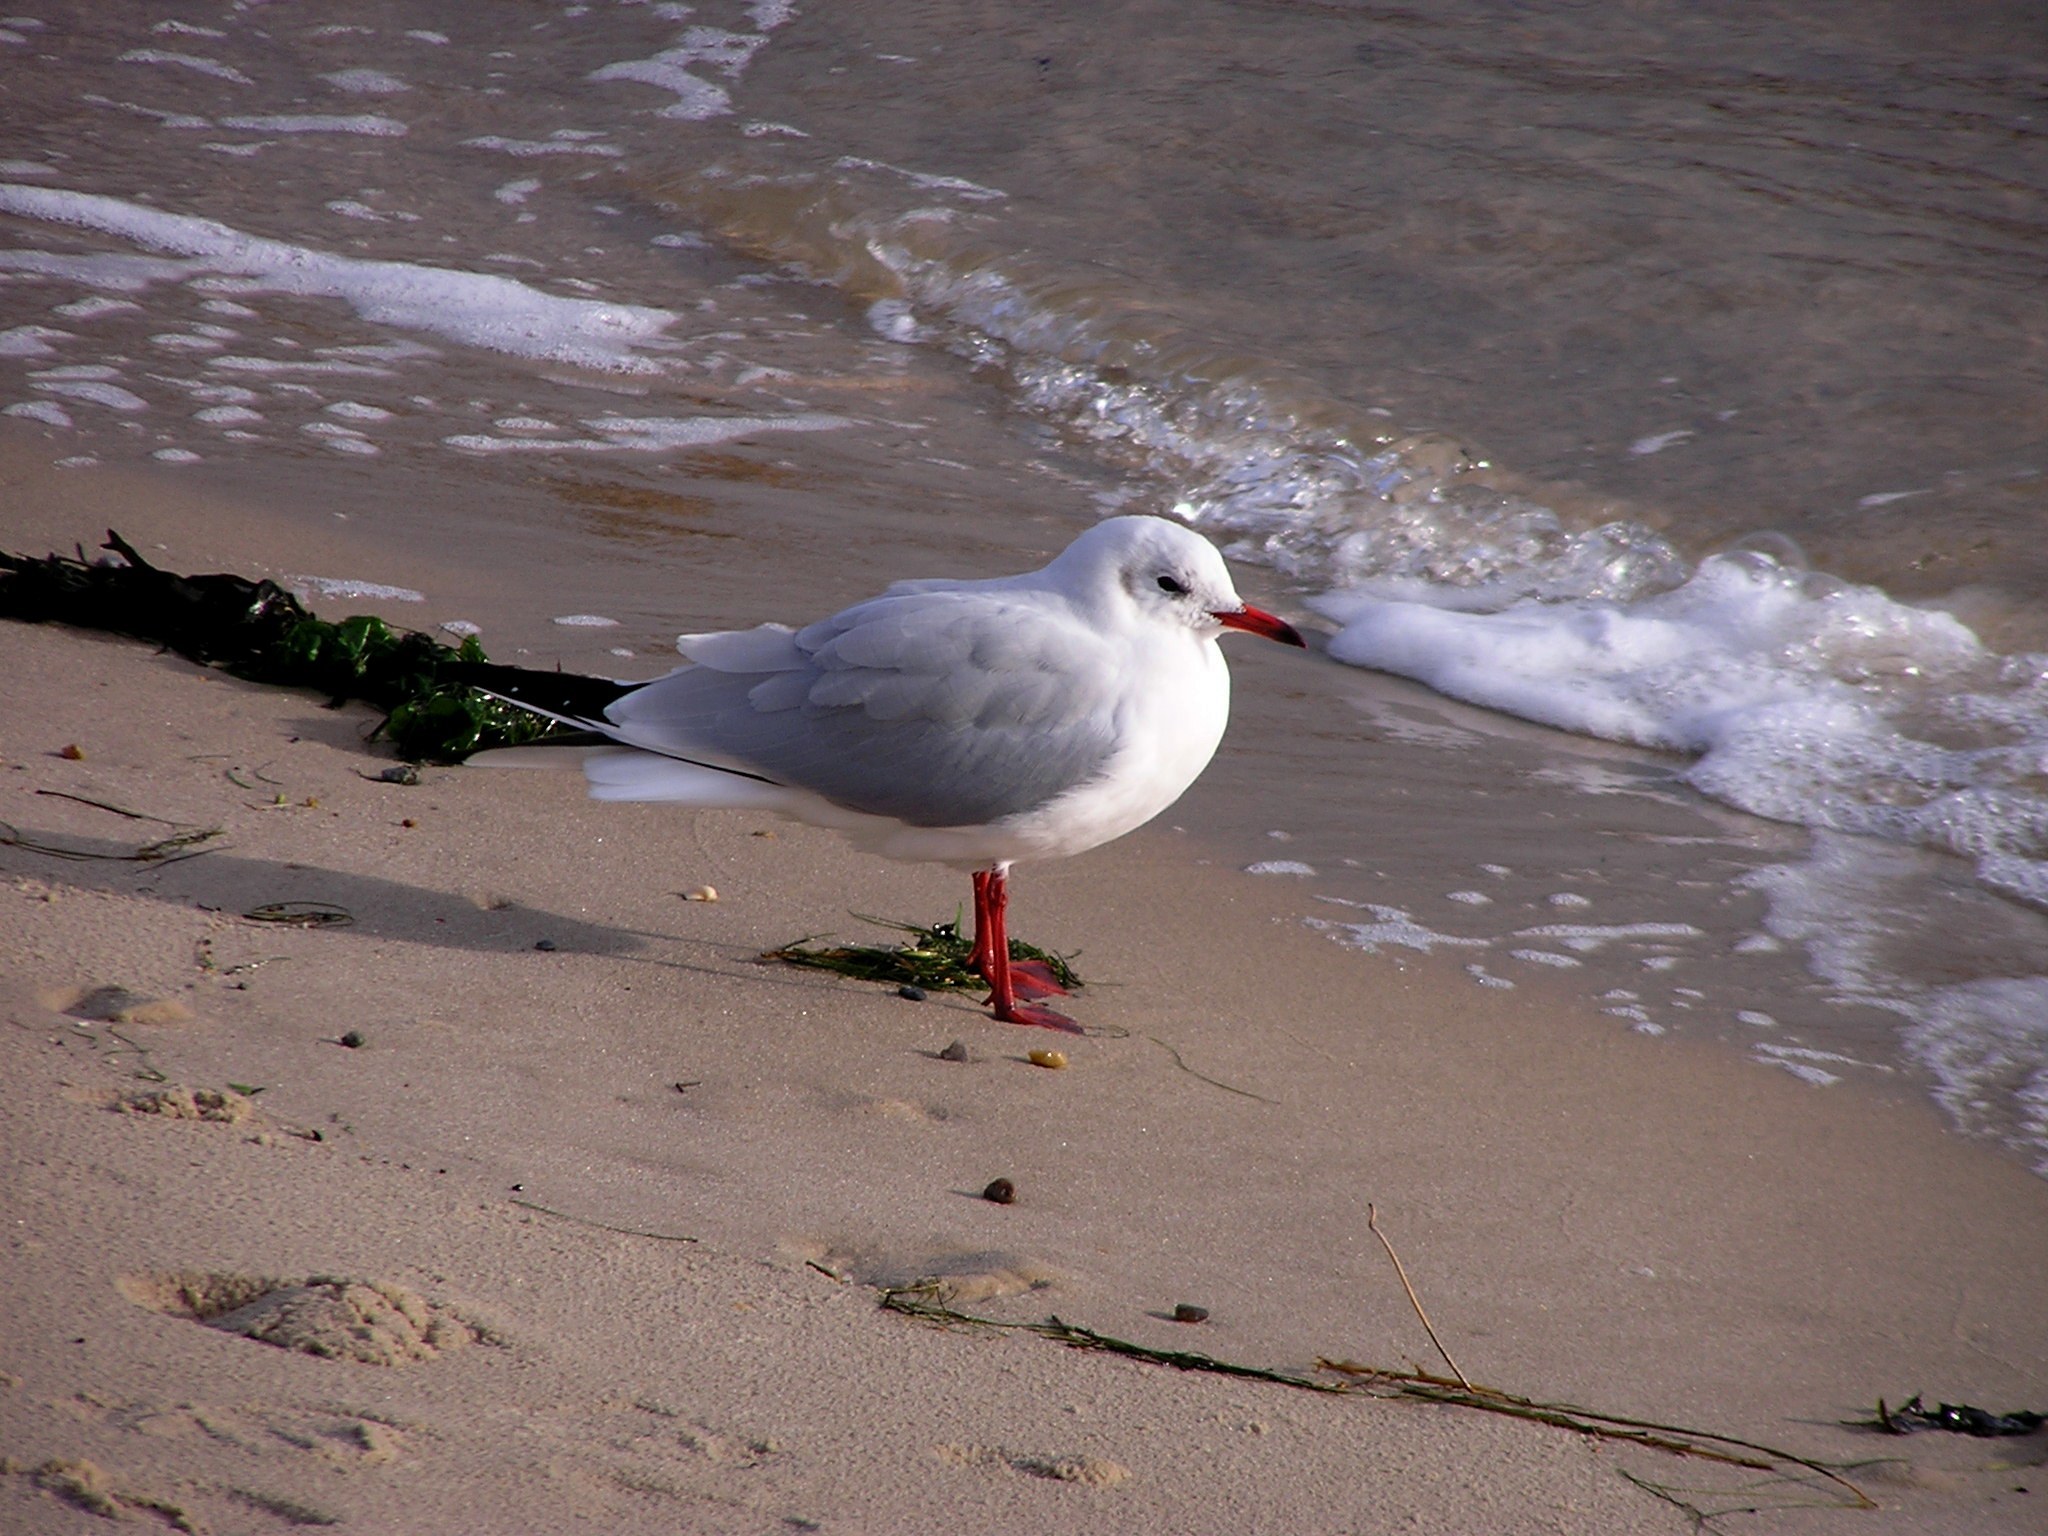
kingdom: Animalia
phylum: Chordata
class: Aves
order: Charadriiformes
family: Laridae
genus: Chroicocephalus
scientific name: Chroicocephalus ridibundus
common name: Black-headed gull
